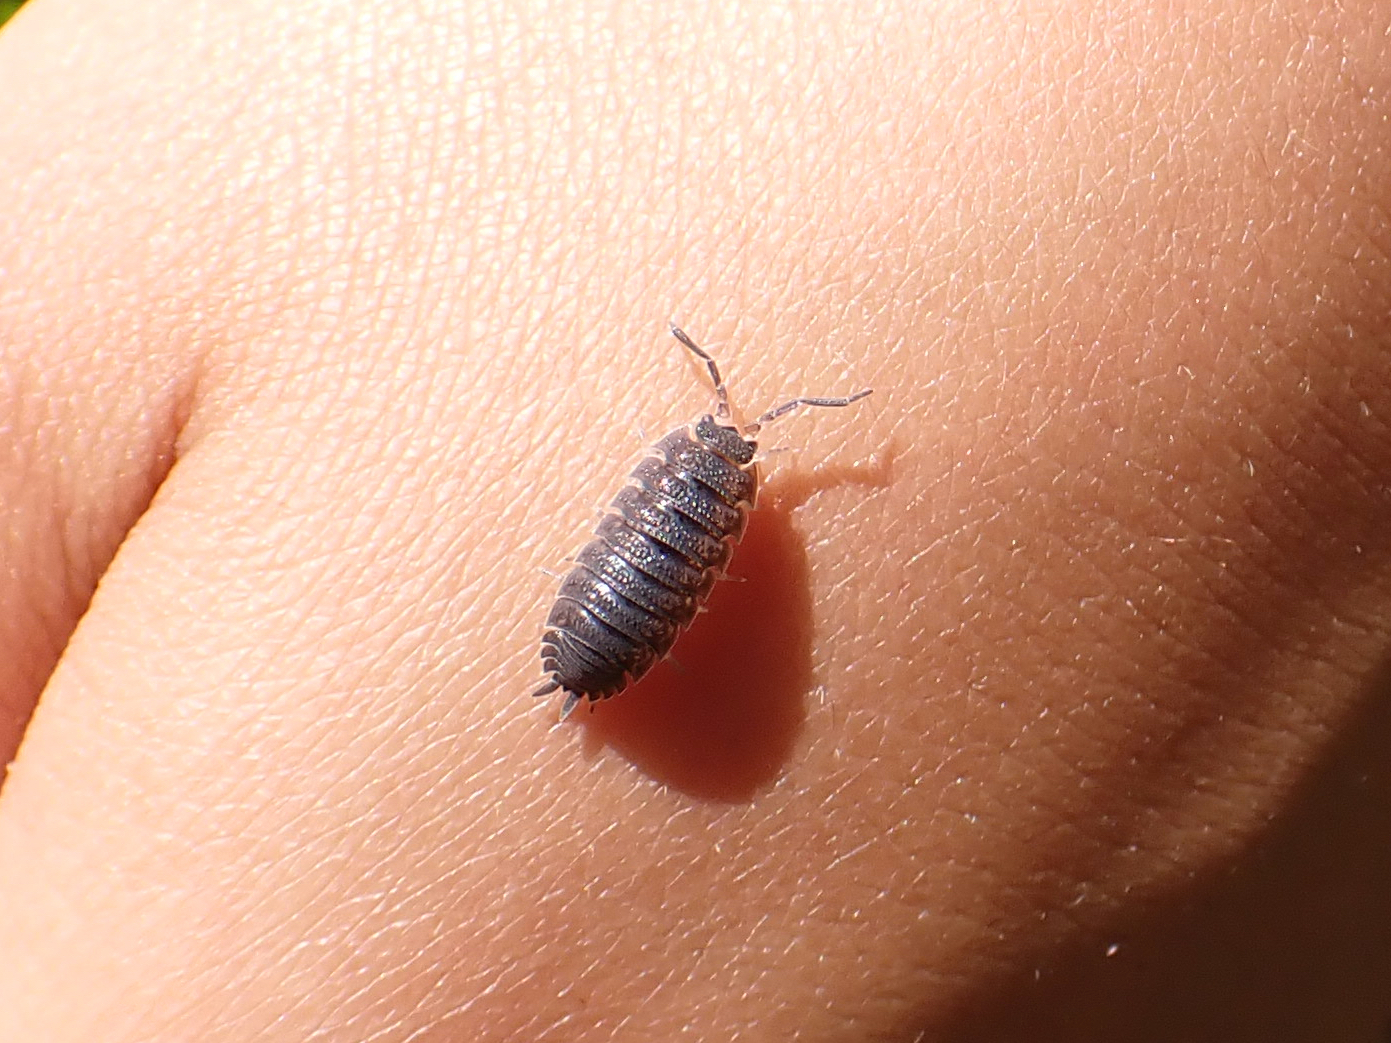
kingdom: Animalia
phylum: Arthropoda
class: Malacostraca
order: Isopoda
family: Porcellionidae
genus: Porcellio
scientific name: Porcellio scaber
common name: Common rough woodlouse
